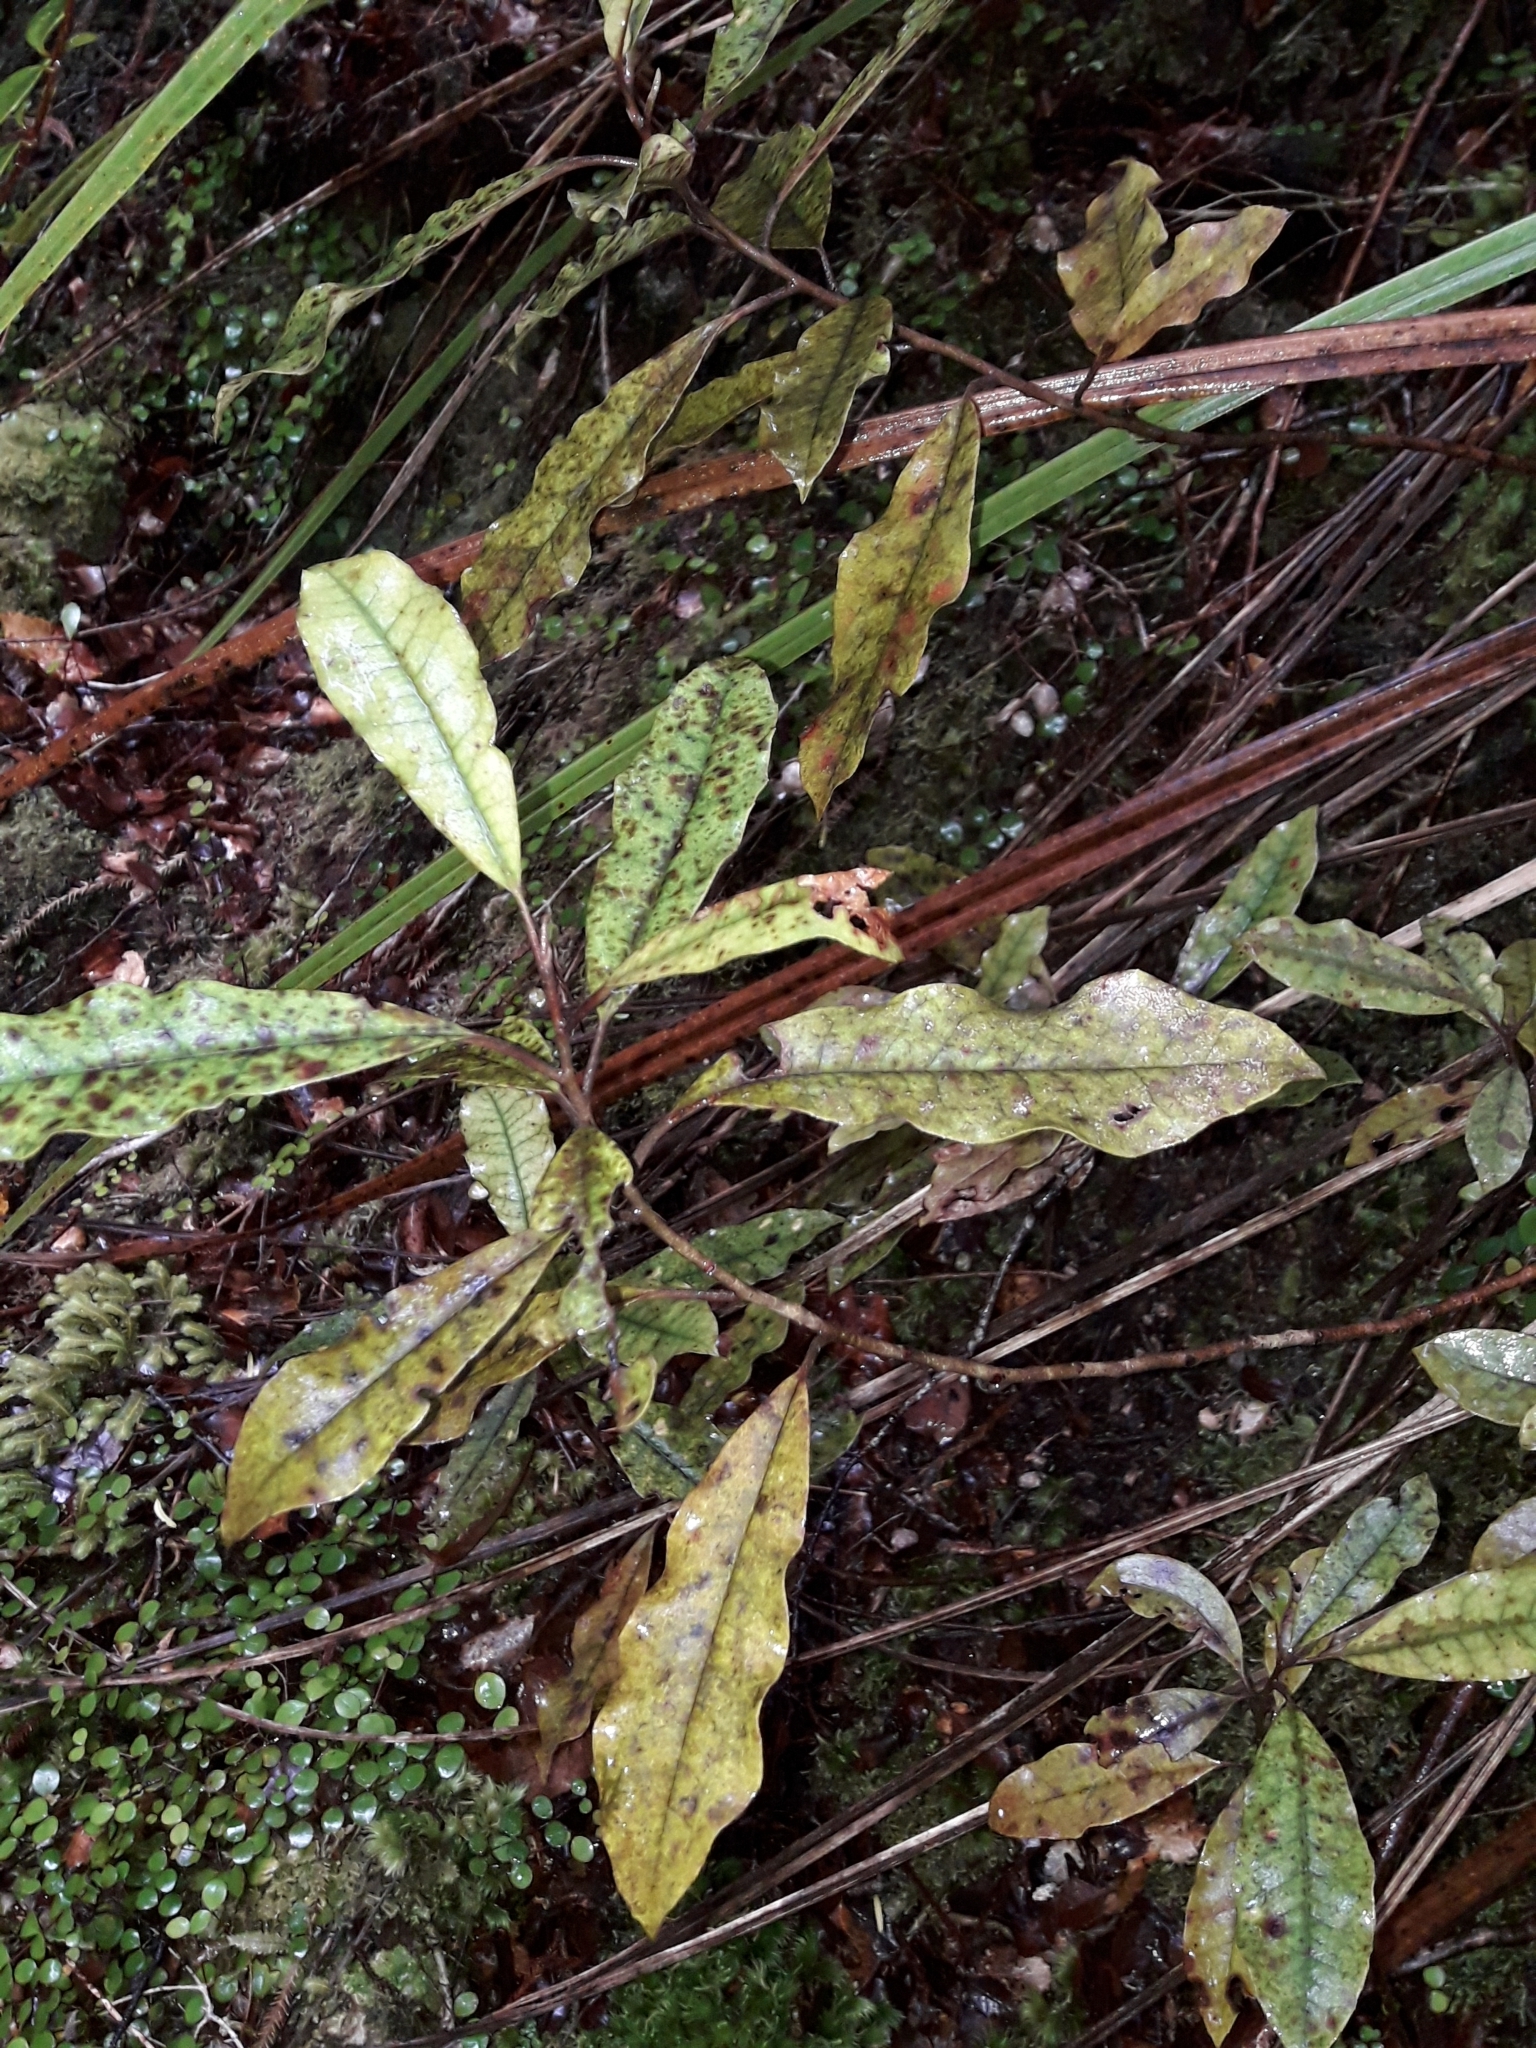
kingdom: Plantae
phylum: Tracheophyta
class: Magnoliopsida
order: Paracryphiales
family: Paracryphiaceae
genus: Quintinia
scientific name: Quintinia serrata
